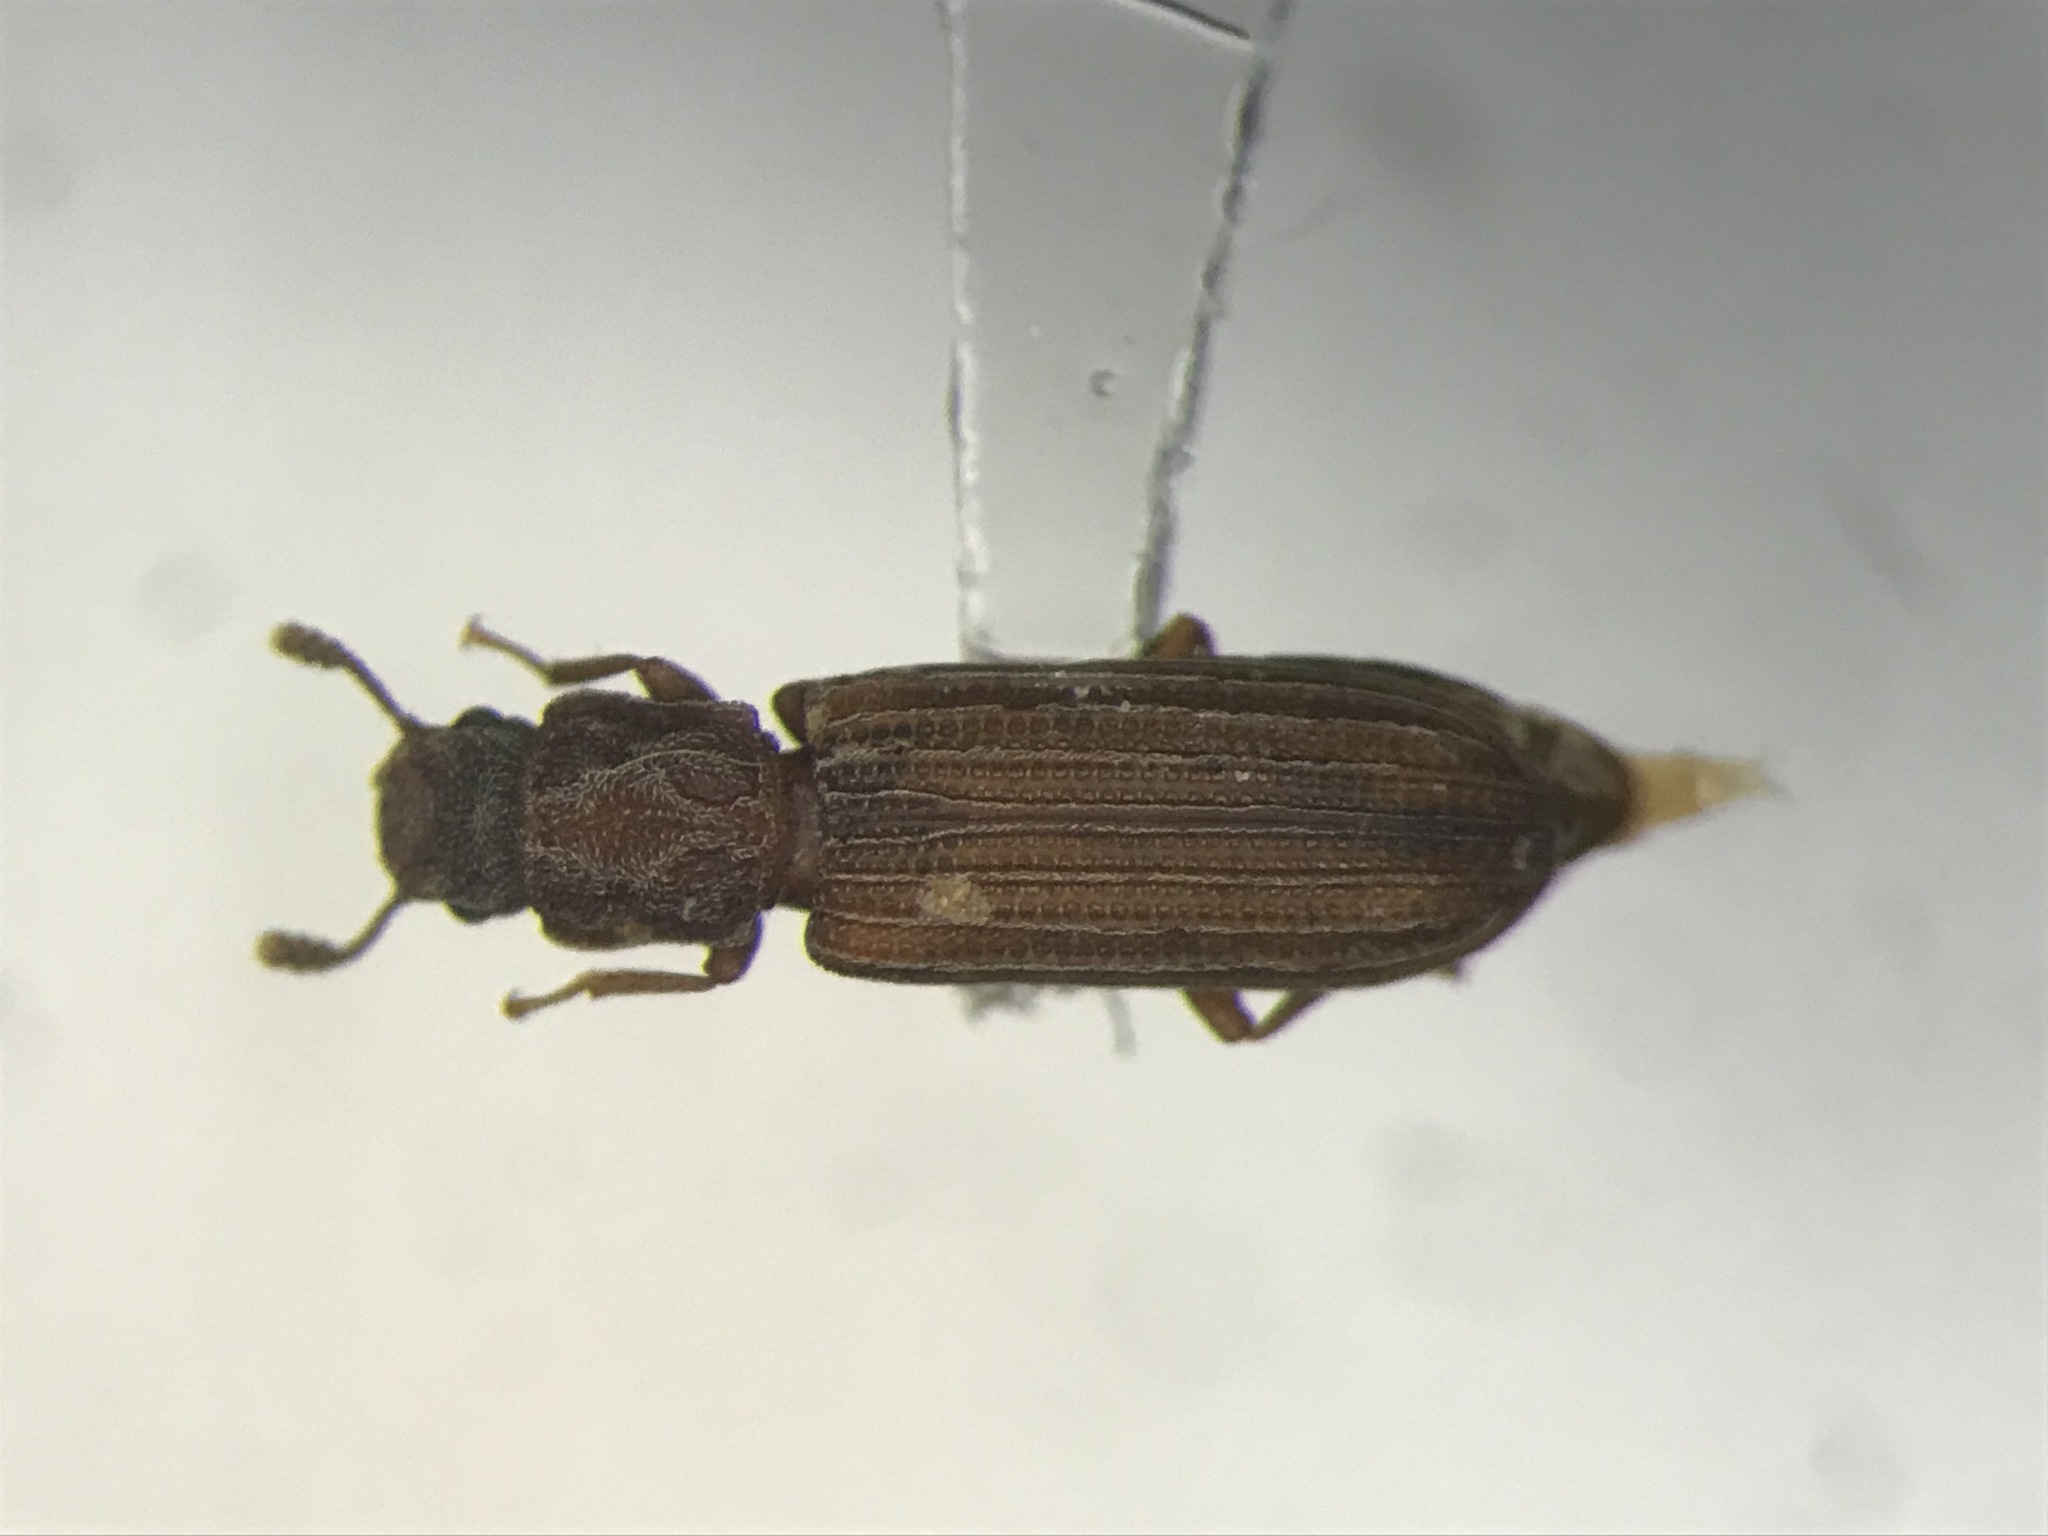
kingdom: Animalia
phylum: Arthropoda
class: Insecta
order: Coleoptera
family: Zopheridae
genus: Lasconotus
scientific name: Lasconotus borealis
